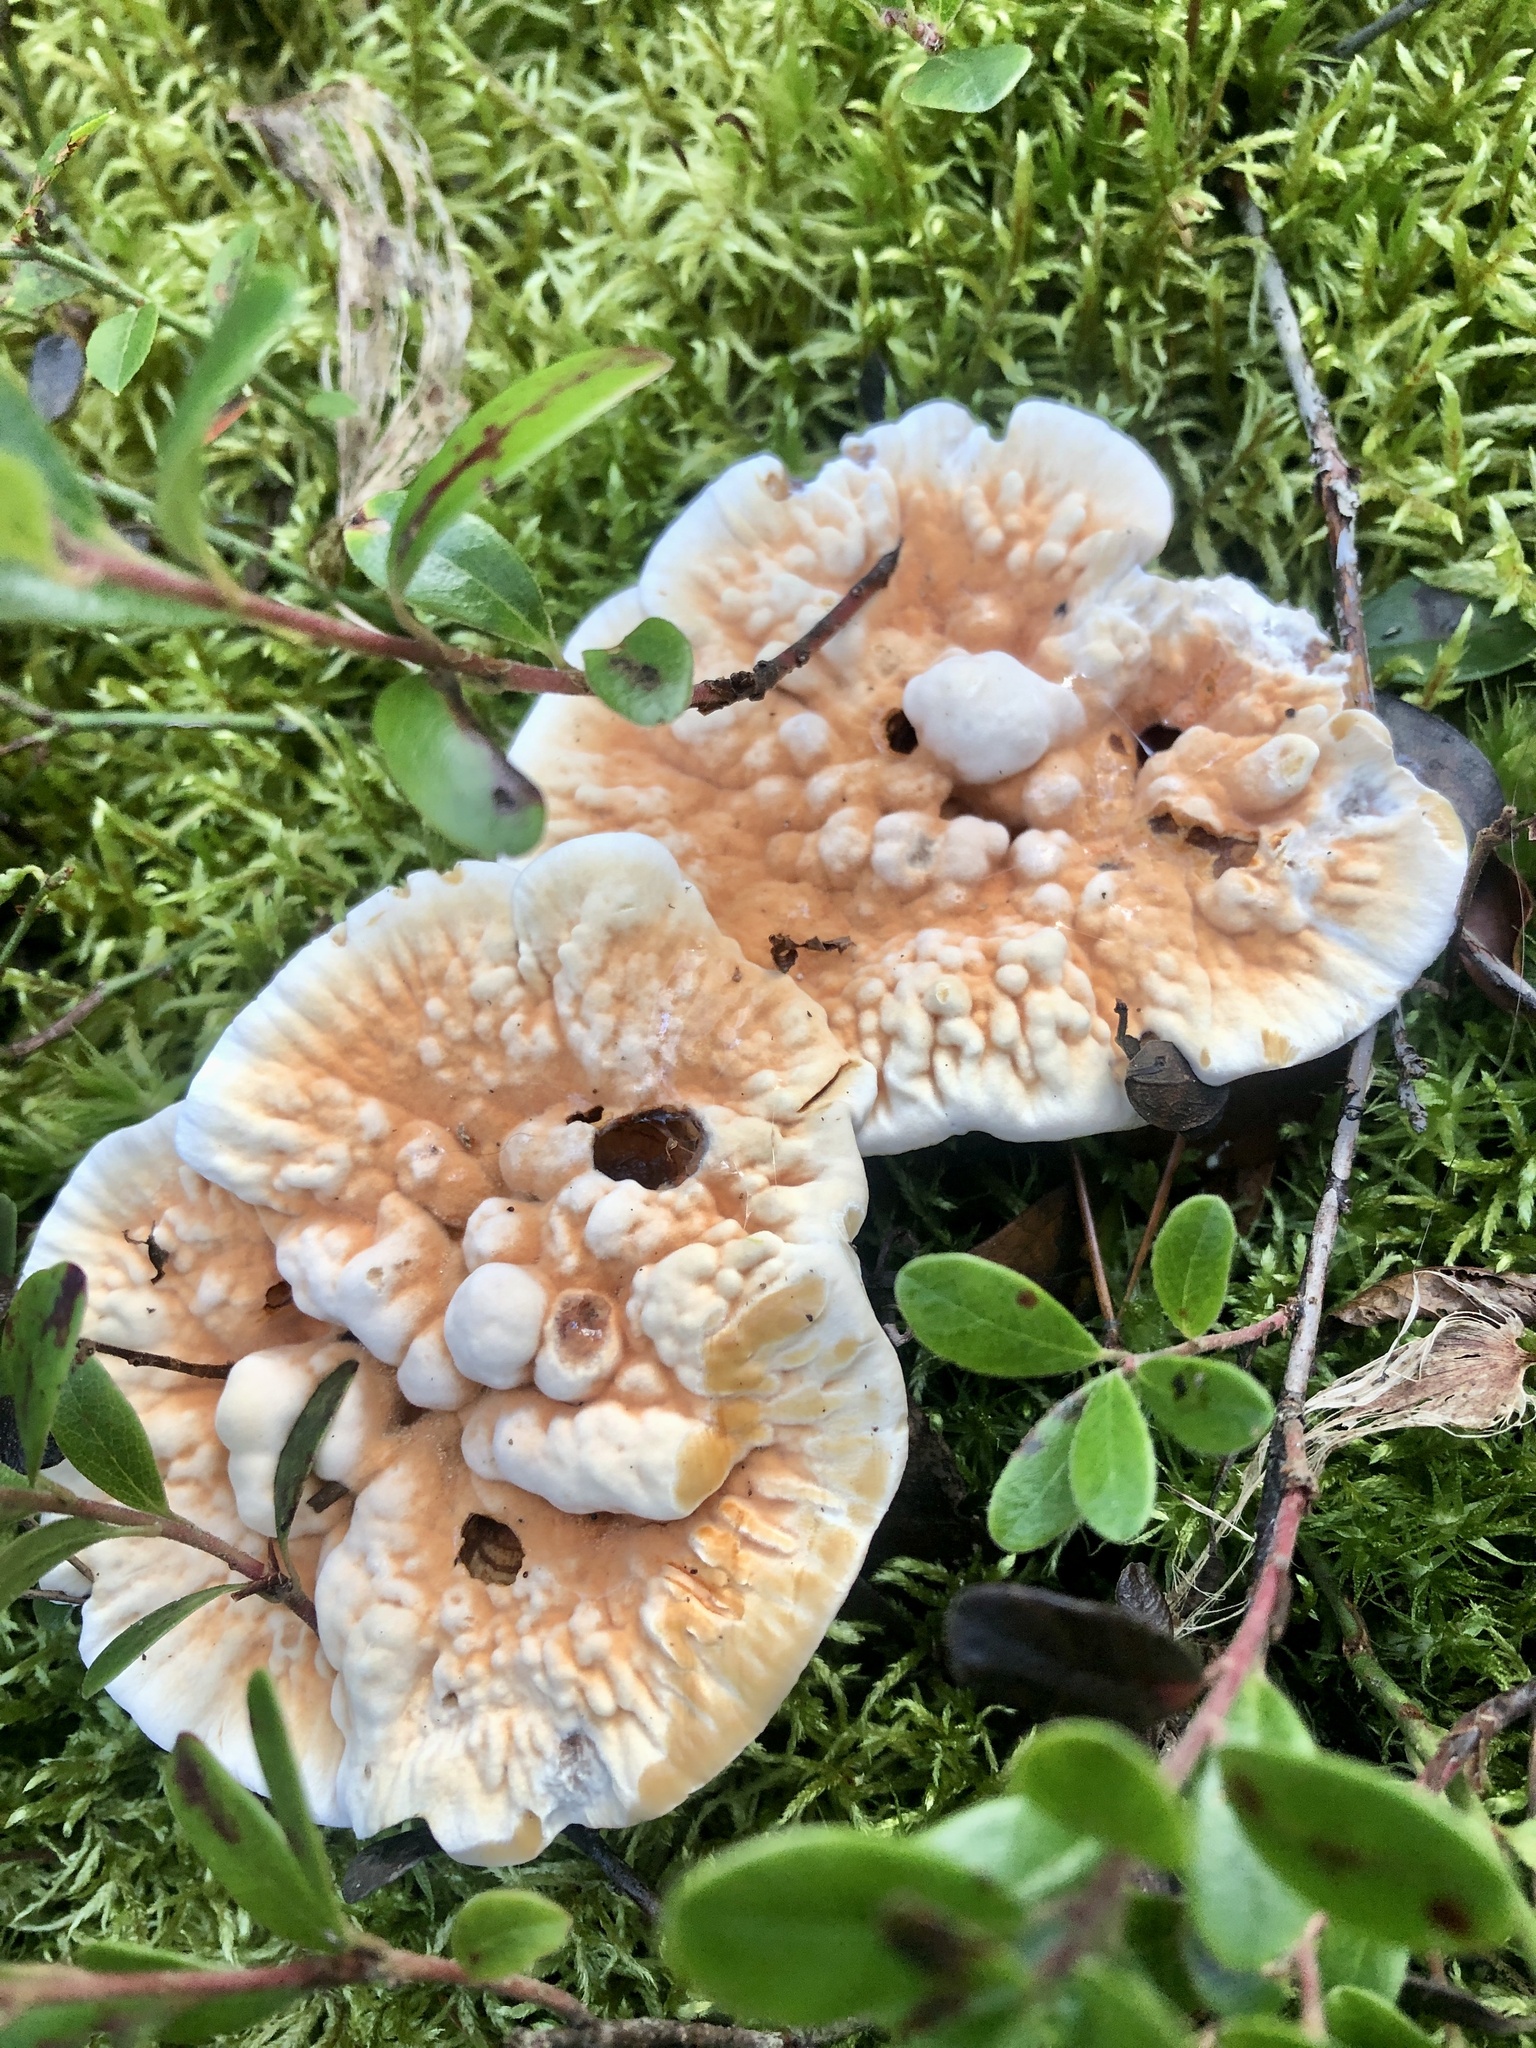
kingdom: Fungi
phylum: Basidiomycota
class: Agaricomycetes
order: Thelephorales
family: Bankeraceae
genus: Hydnellum
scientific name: Hydnellum aurantiacum
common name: Orange tooth
